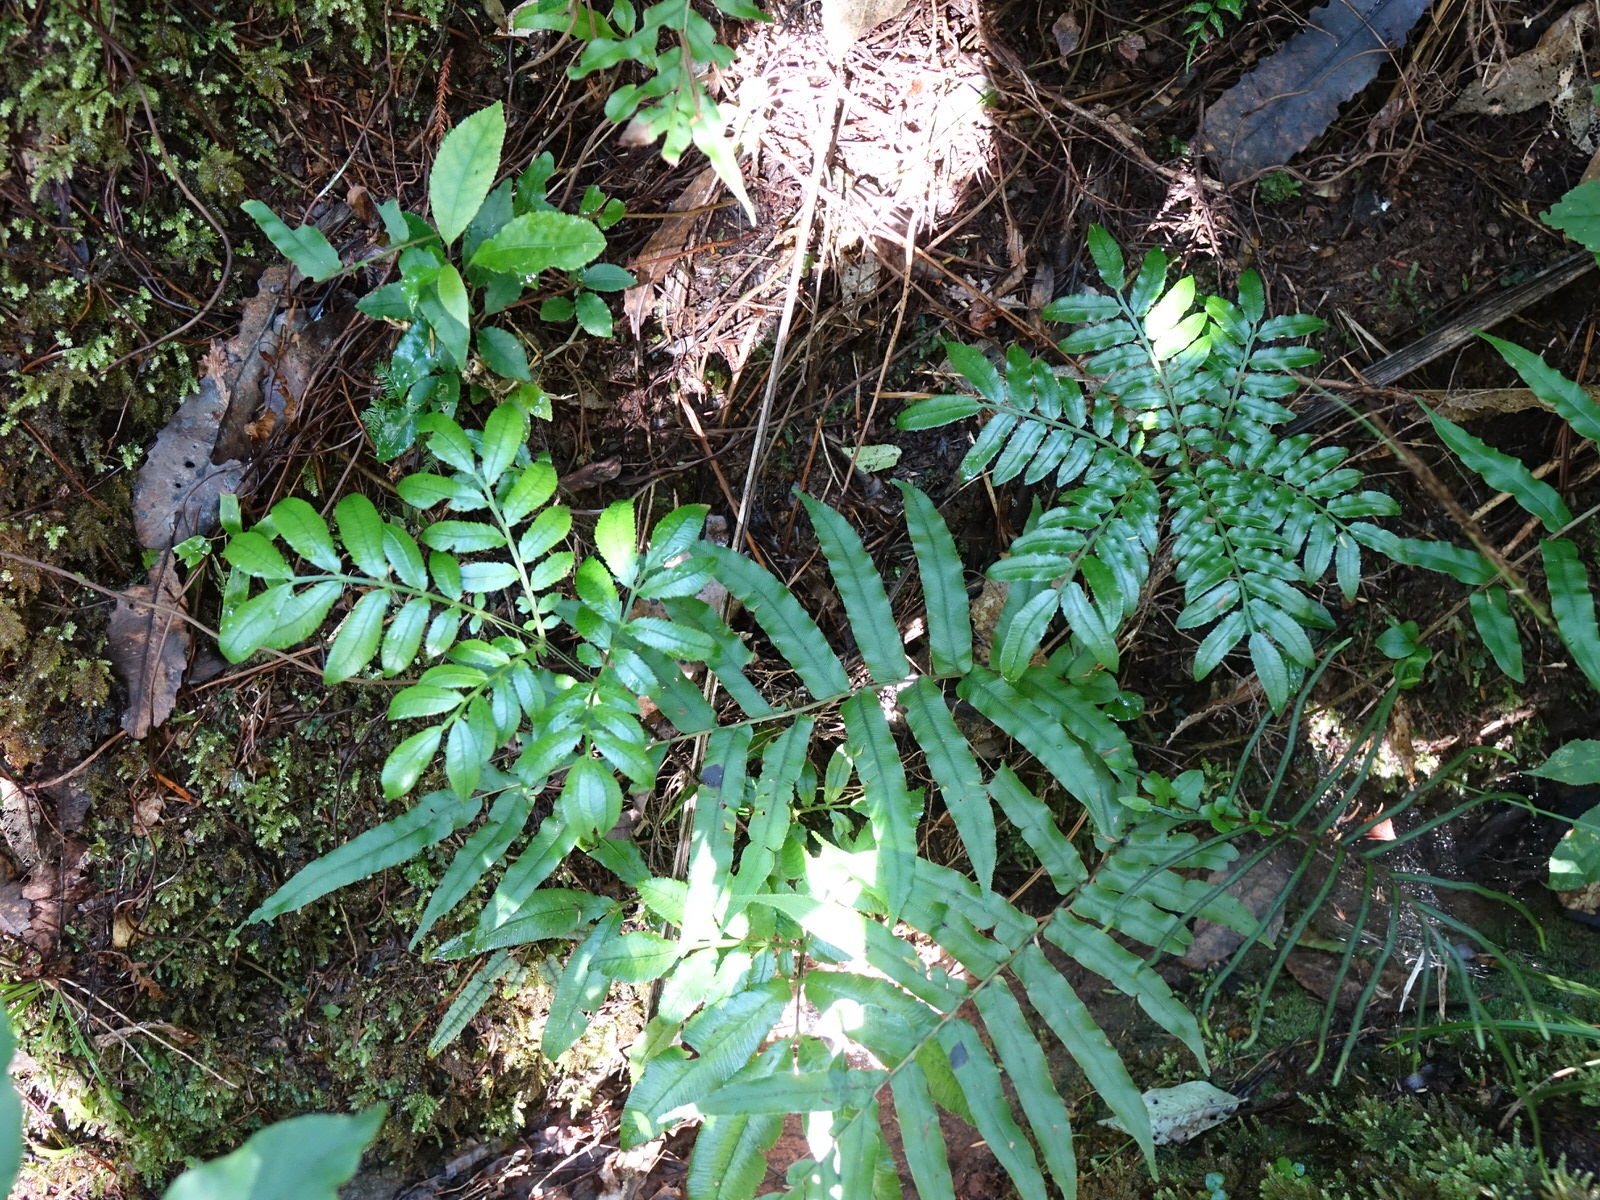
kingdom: Plantae
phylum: Tracheophyta
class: Polypodiopsida
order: Marattiales
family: Marattiaceae
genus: Ptisana
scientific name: Ptisana salicina
